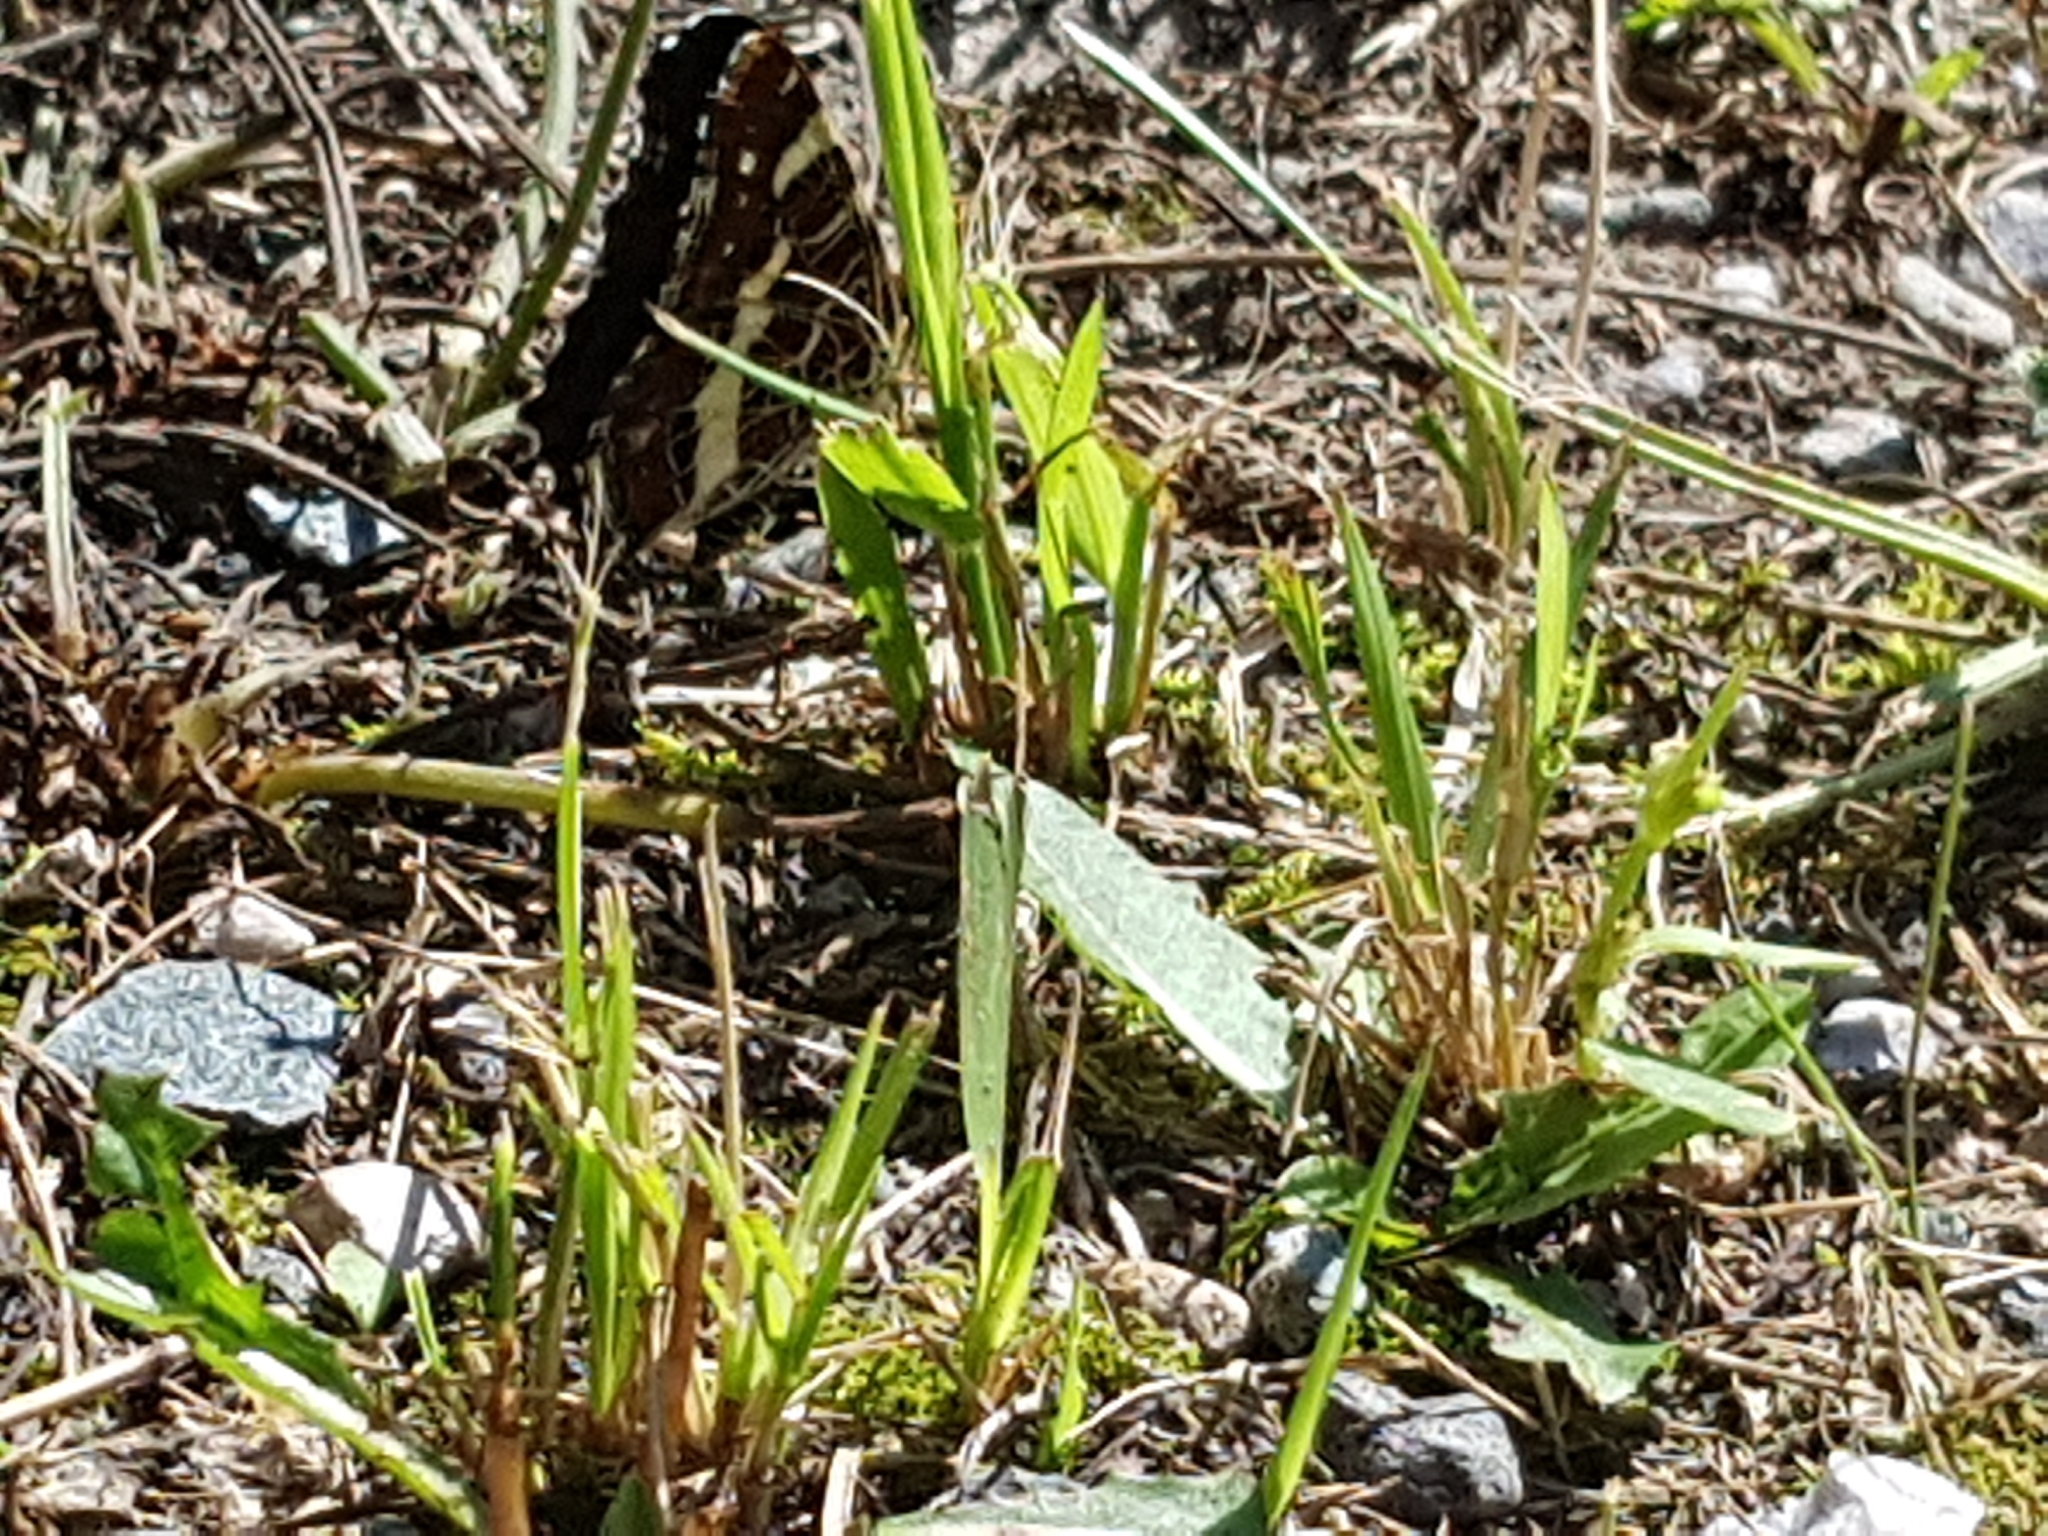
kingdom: Animalia
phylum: Arthropoda
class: Insecta
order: Lepidoptera
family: Nymphalidae
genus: Araschnia
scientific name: Araschnia levana
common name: Map butterfly
